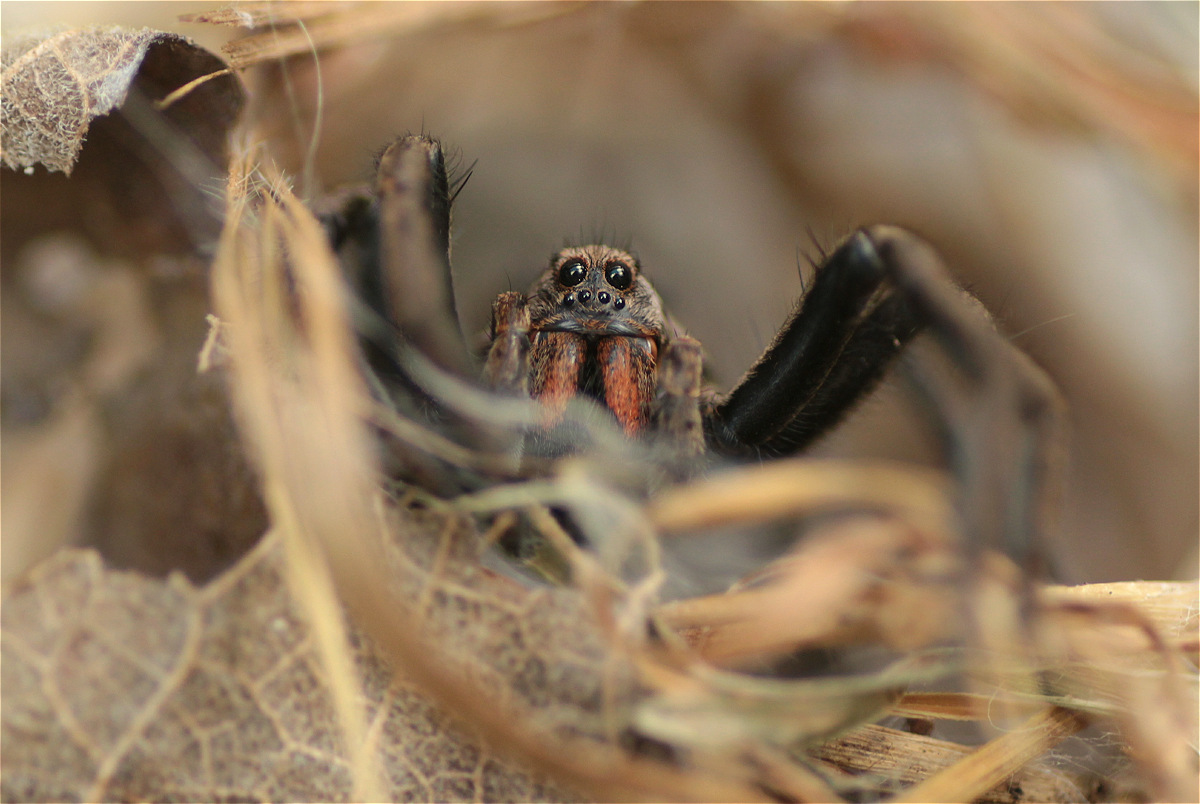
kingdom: Animalia
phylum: Arthropoda
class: Arachnida
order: Araneae
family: Lycosidae
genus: Lycosa
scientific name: Lycosa erythrognatha
